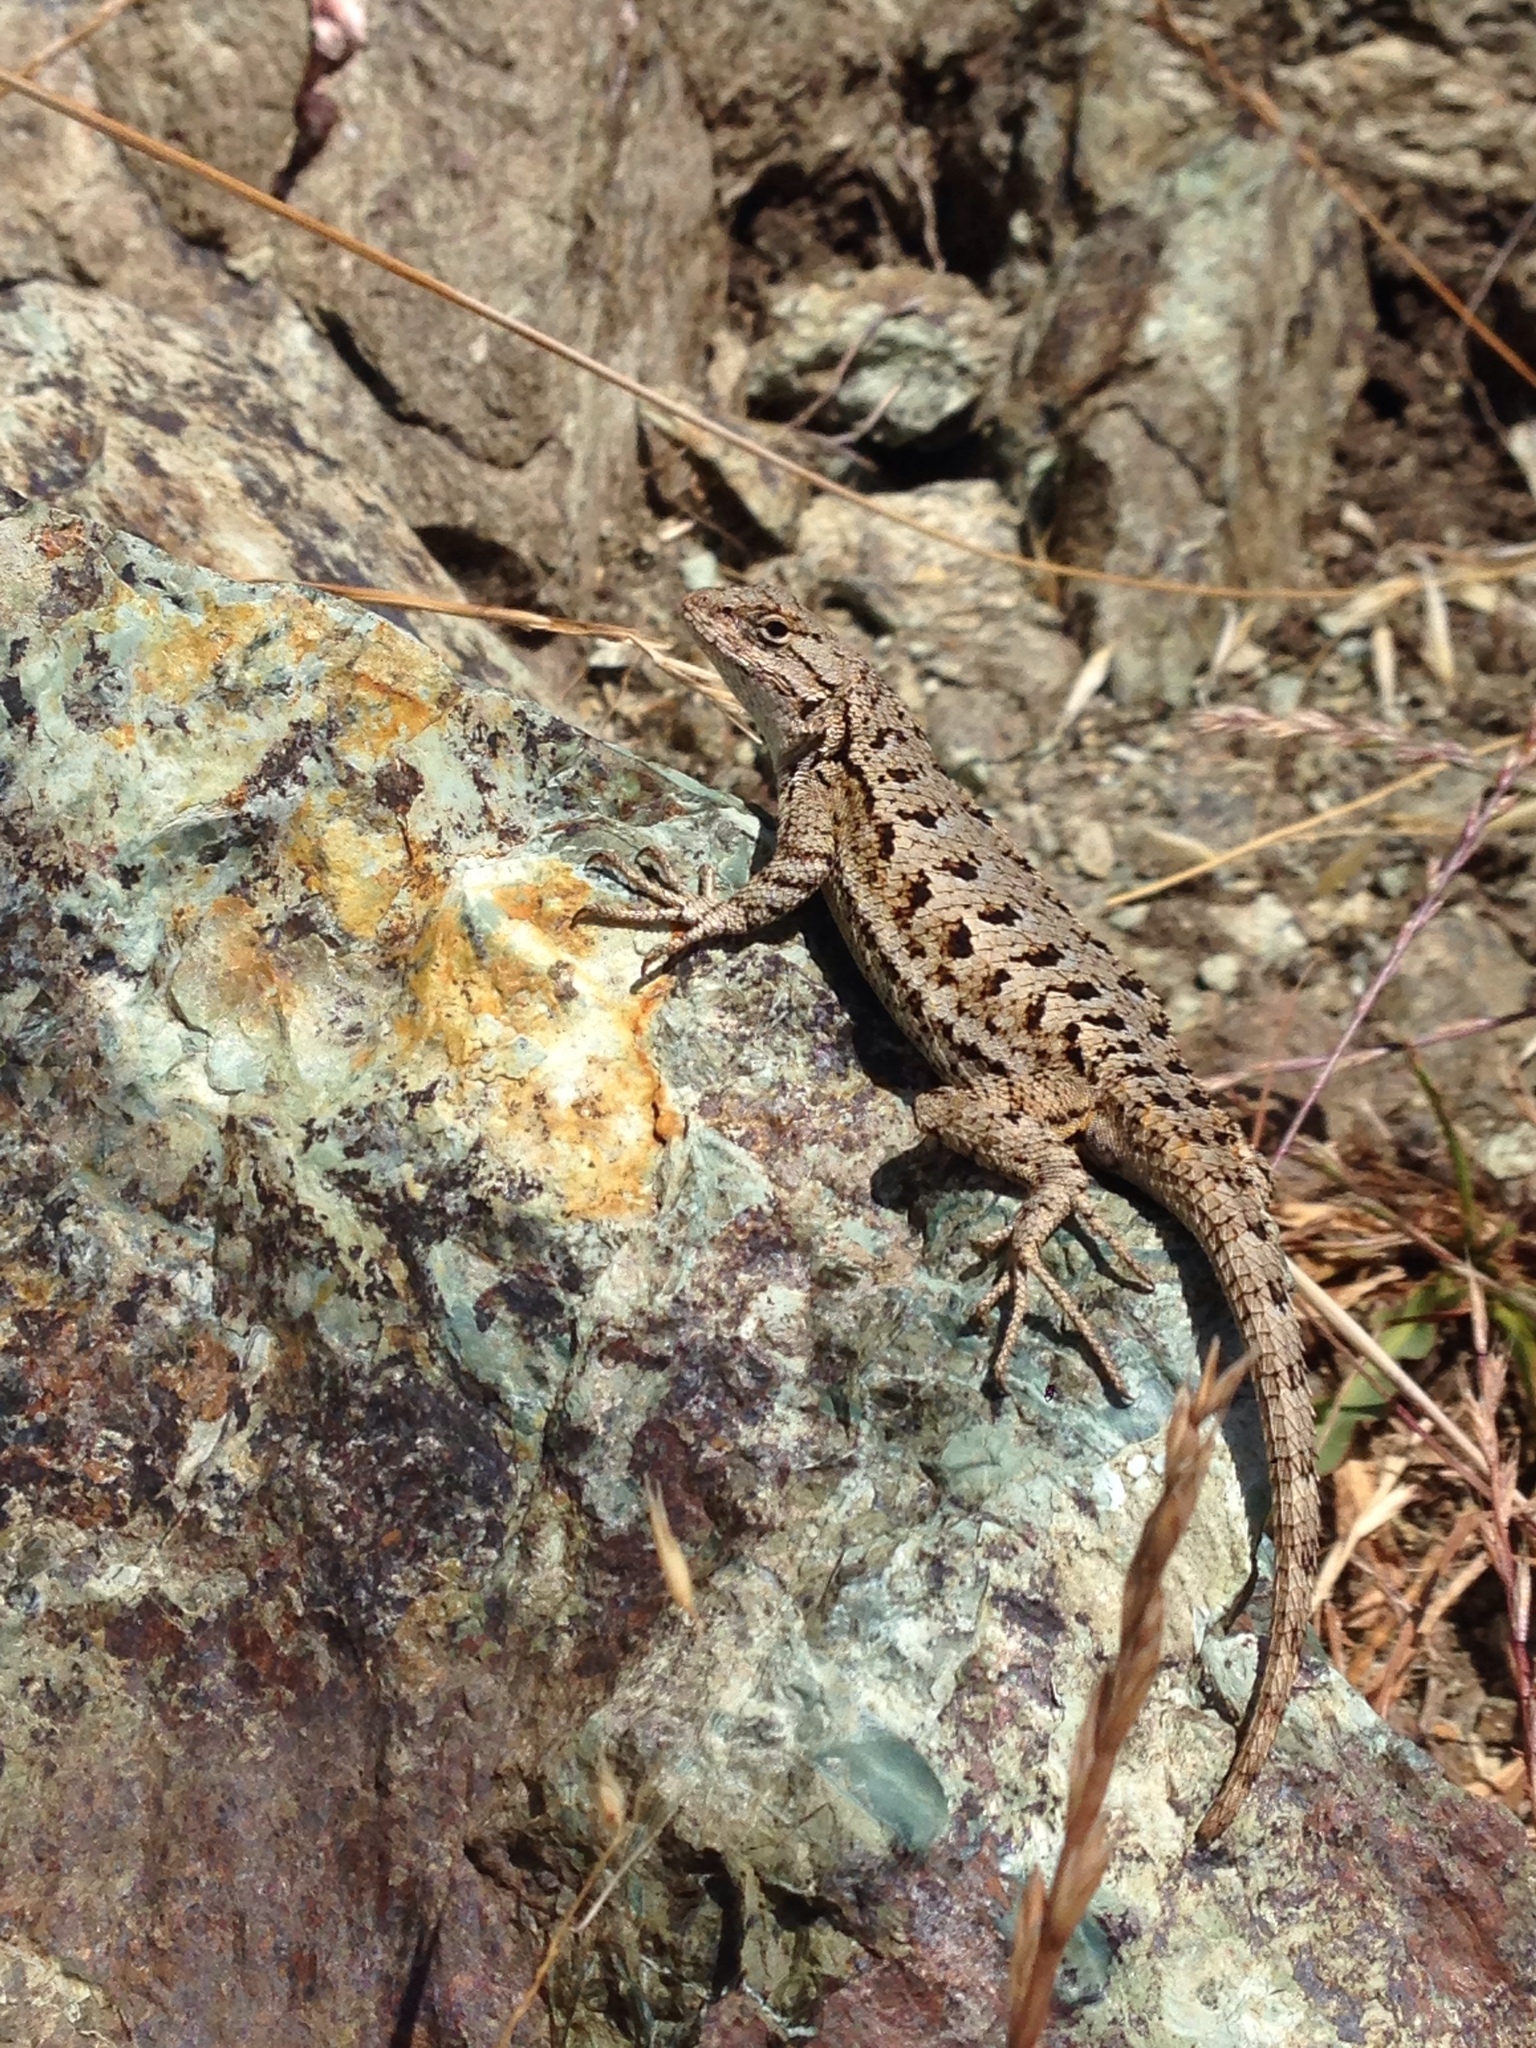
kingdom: Animalia
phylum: Chordata
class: Squamata
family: Phrynosomatidae
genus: Sceloporus
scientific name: Sceloporus occidentalis
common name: Western fence lizard
